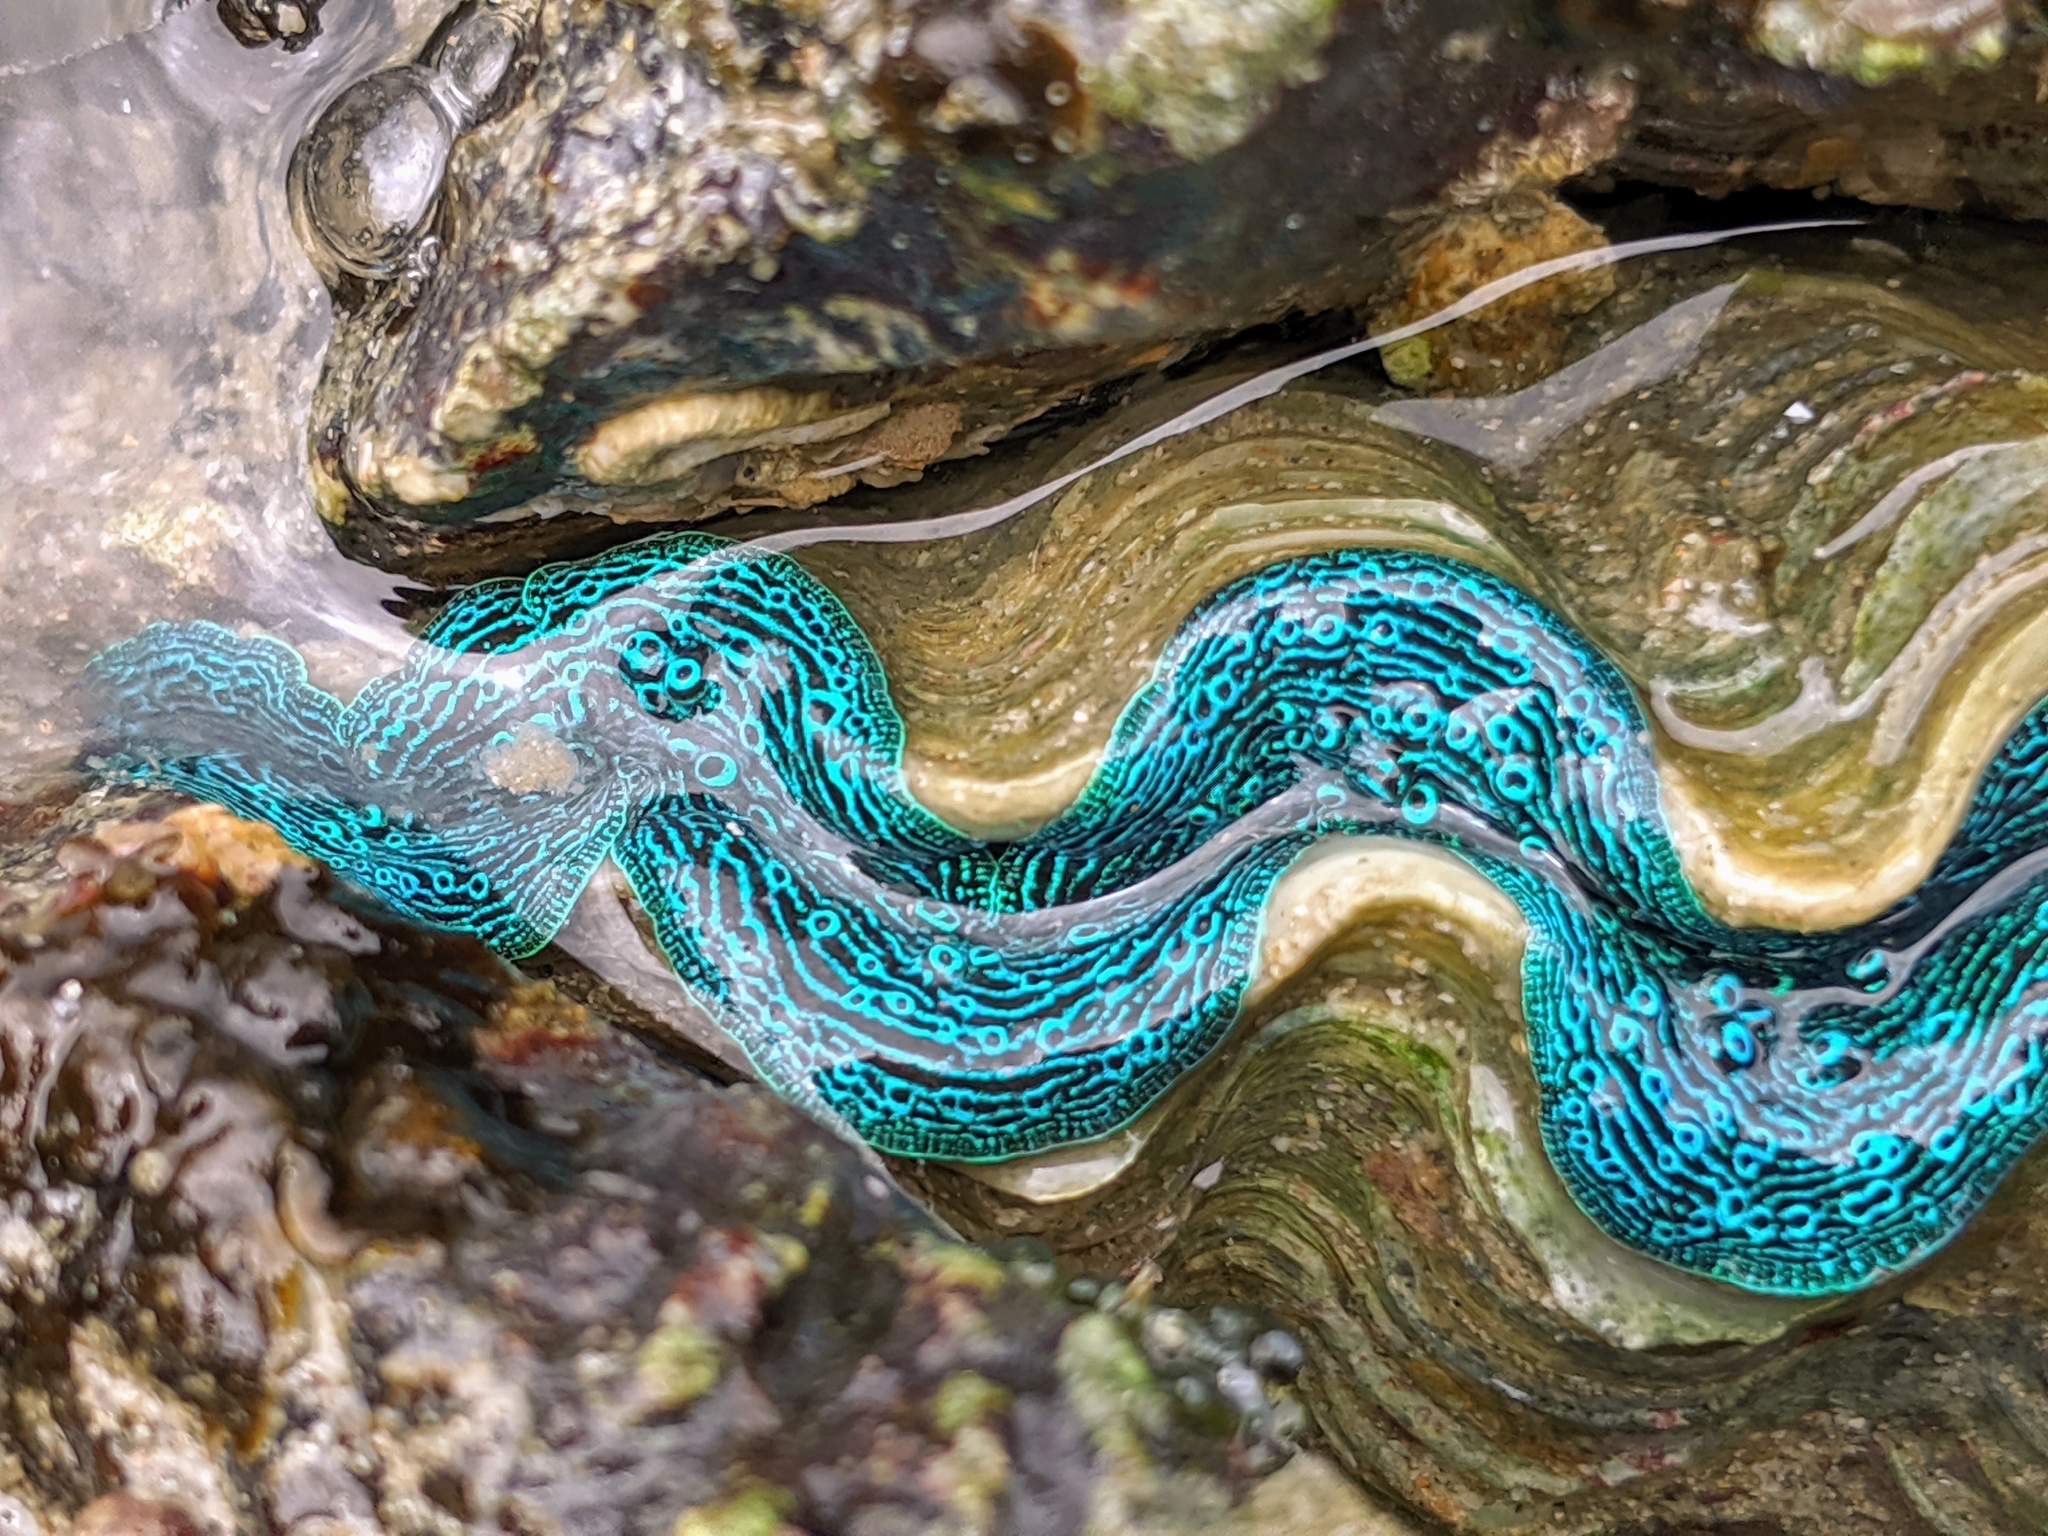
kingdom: Animalia
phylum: Mollusca
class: Bivalvia
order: Cardiida
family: Cardiidae
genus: Tridacna
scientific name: Tridacna maxima
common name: Small giant clam
